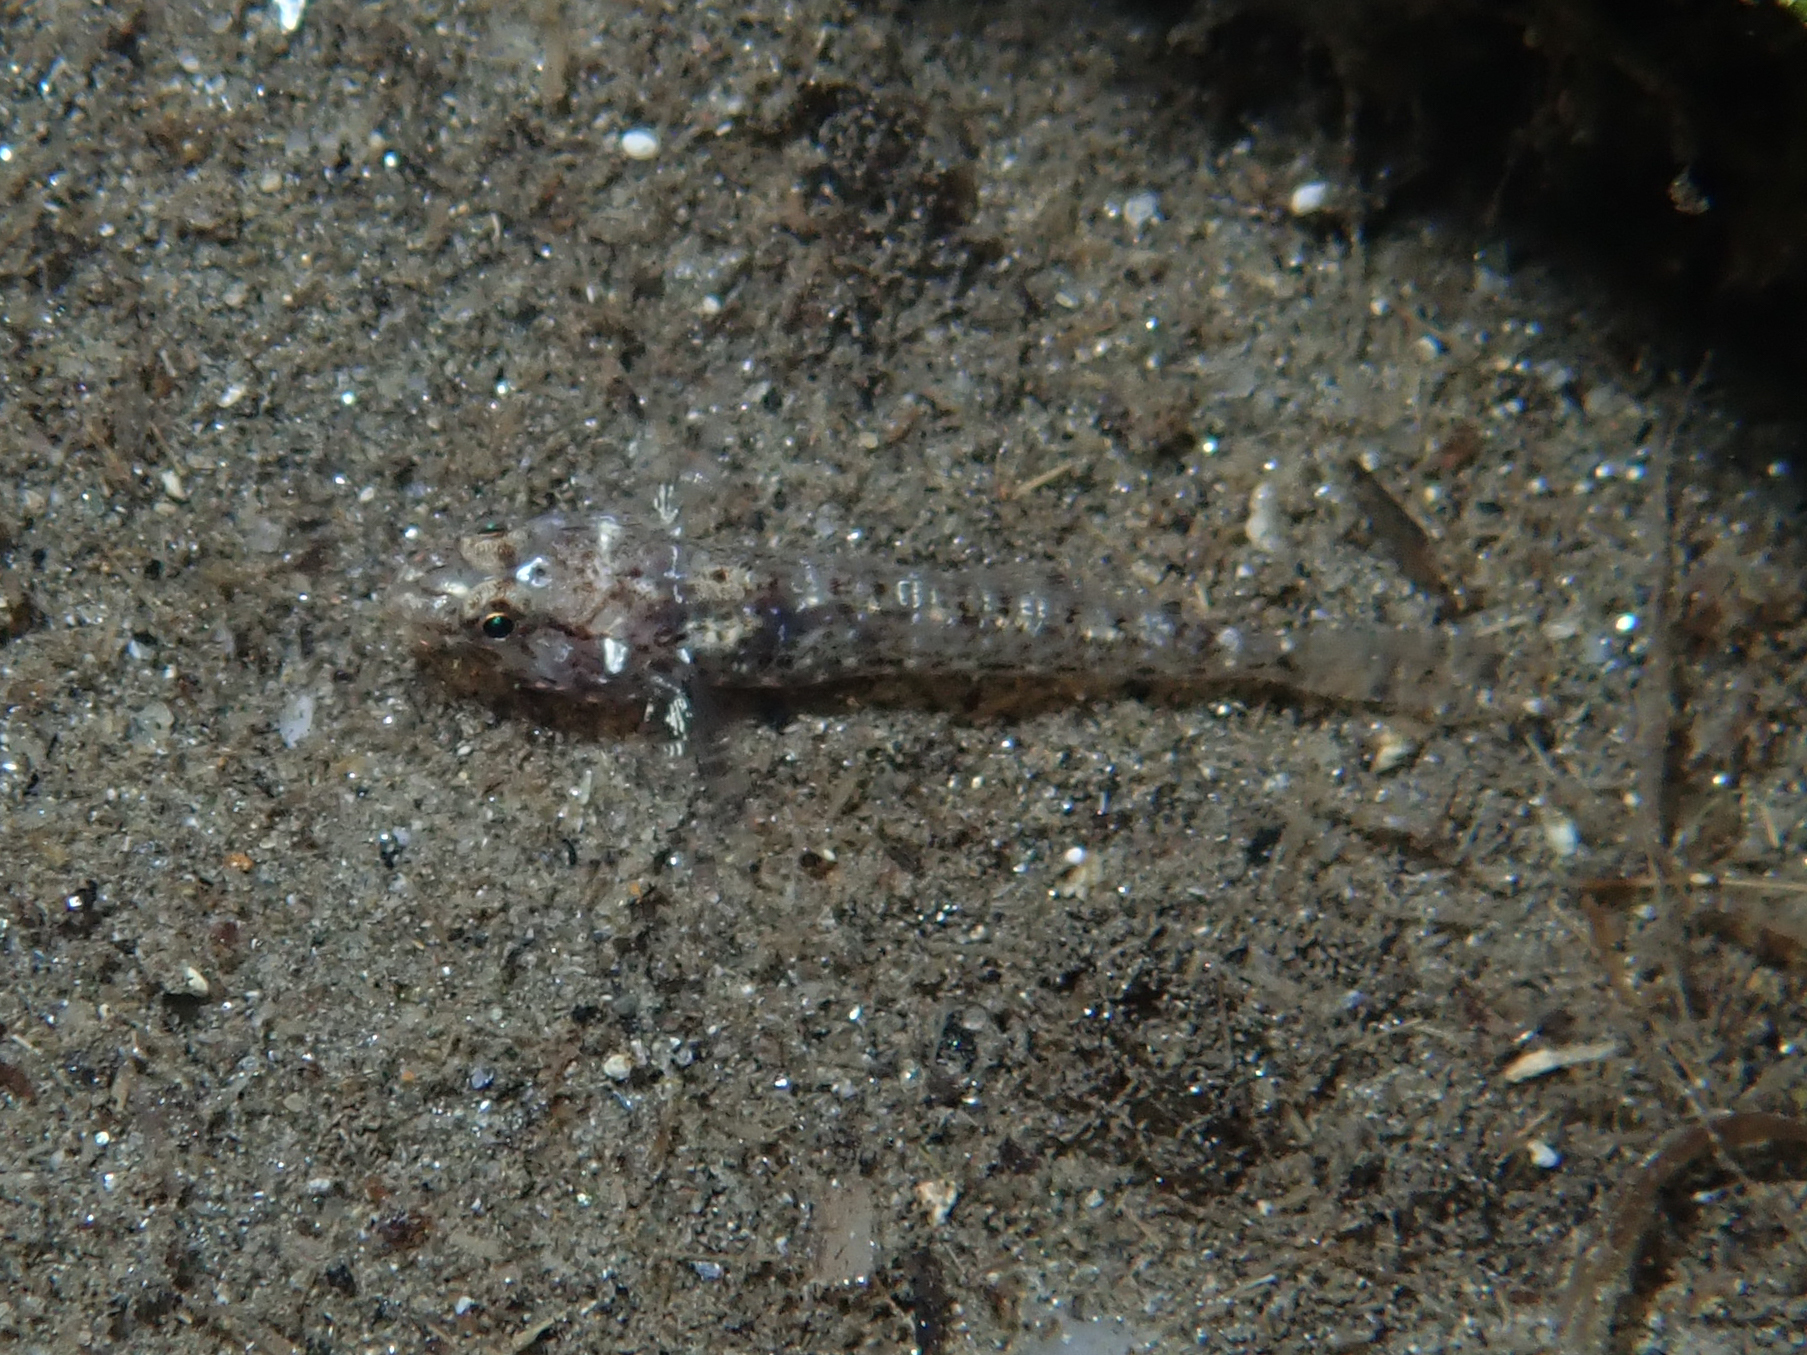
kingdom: Animalia
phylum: Chordata
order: Perciformes
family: Gobiidae
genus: Gobius
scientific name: Gobius incognitus
